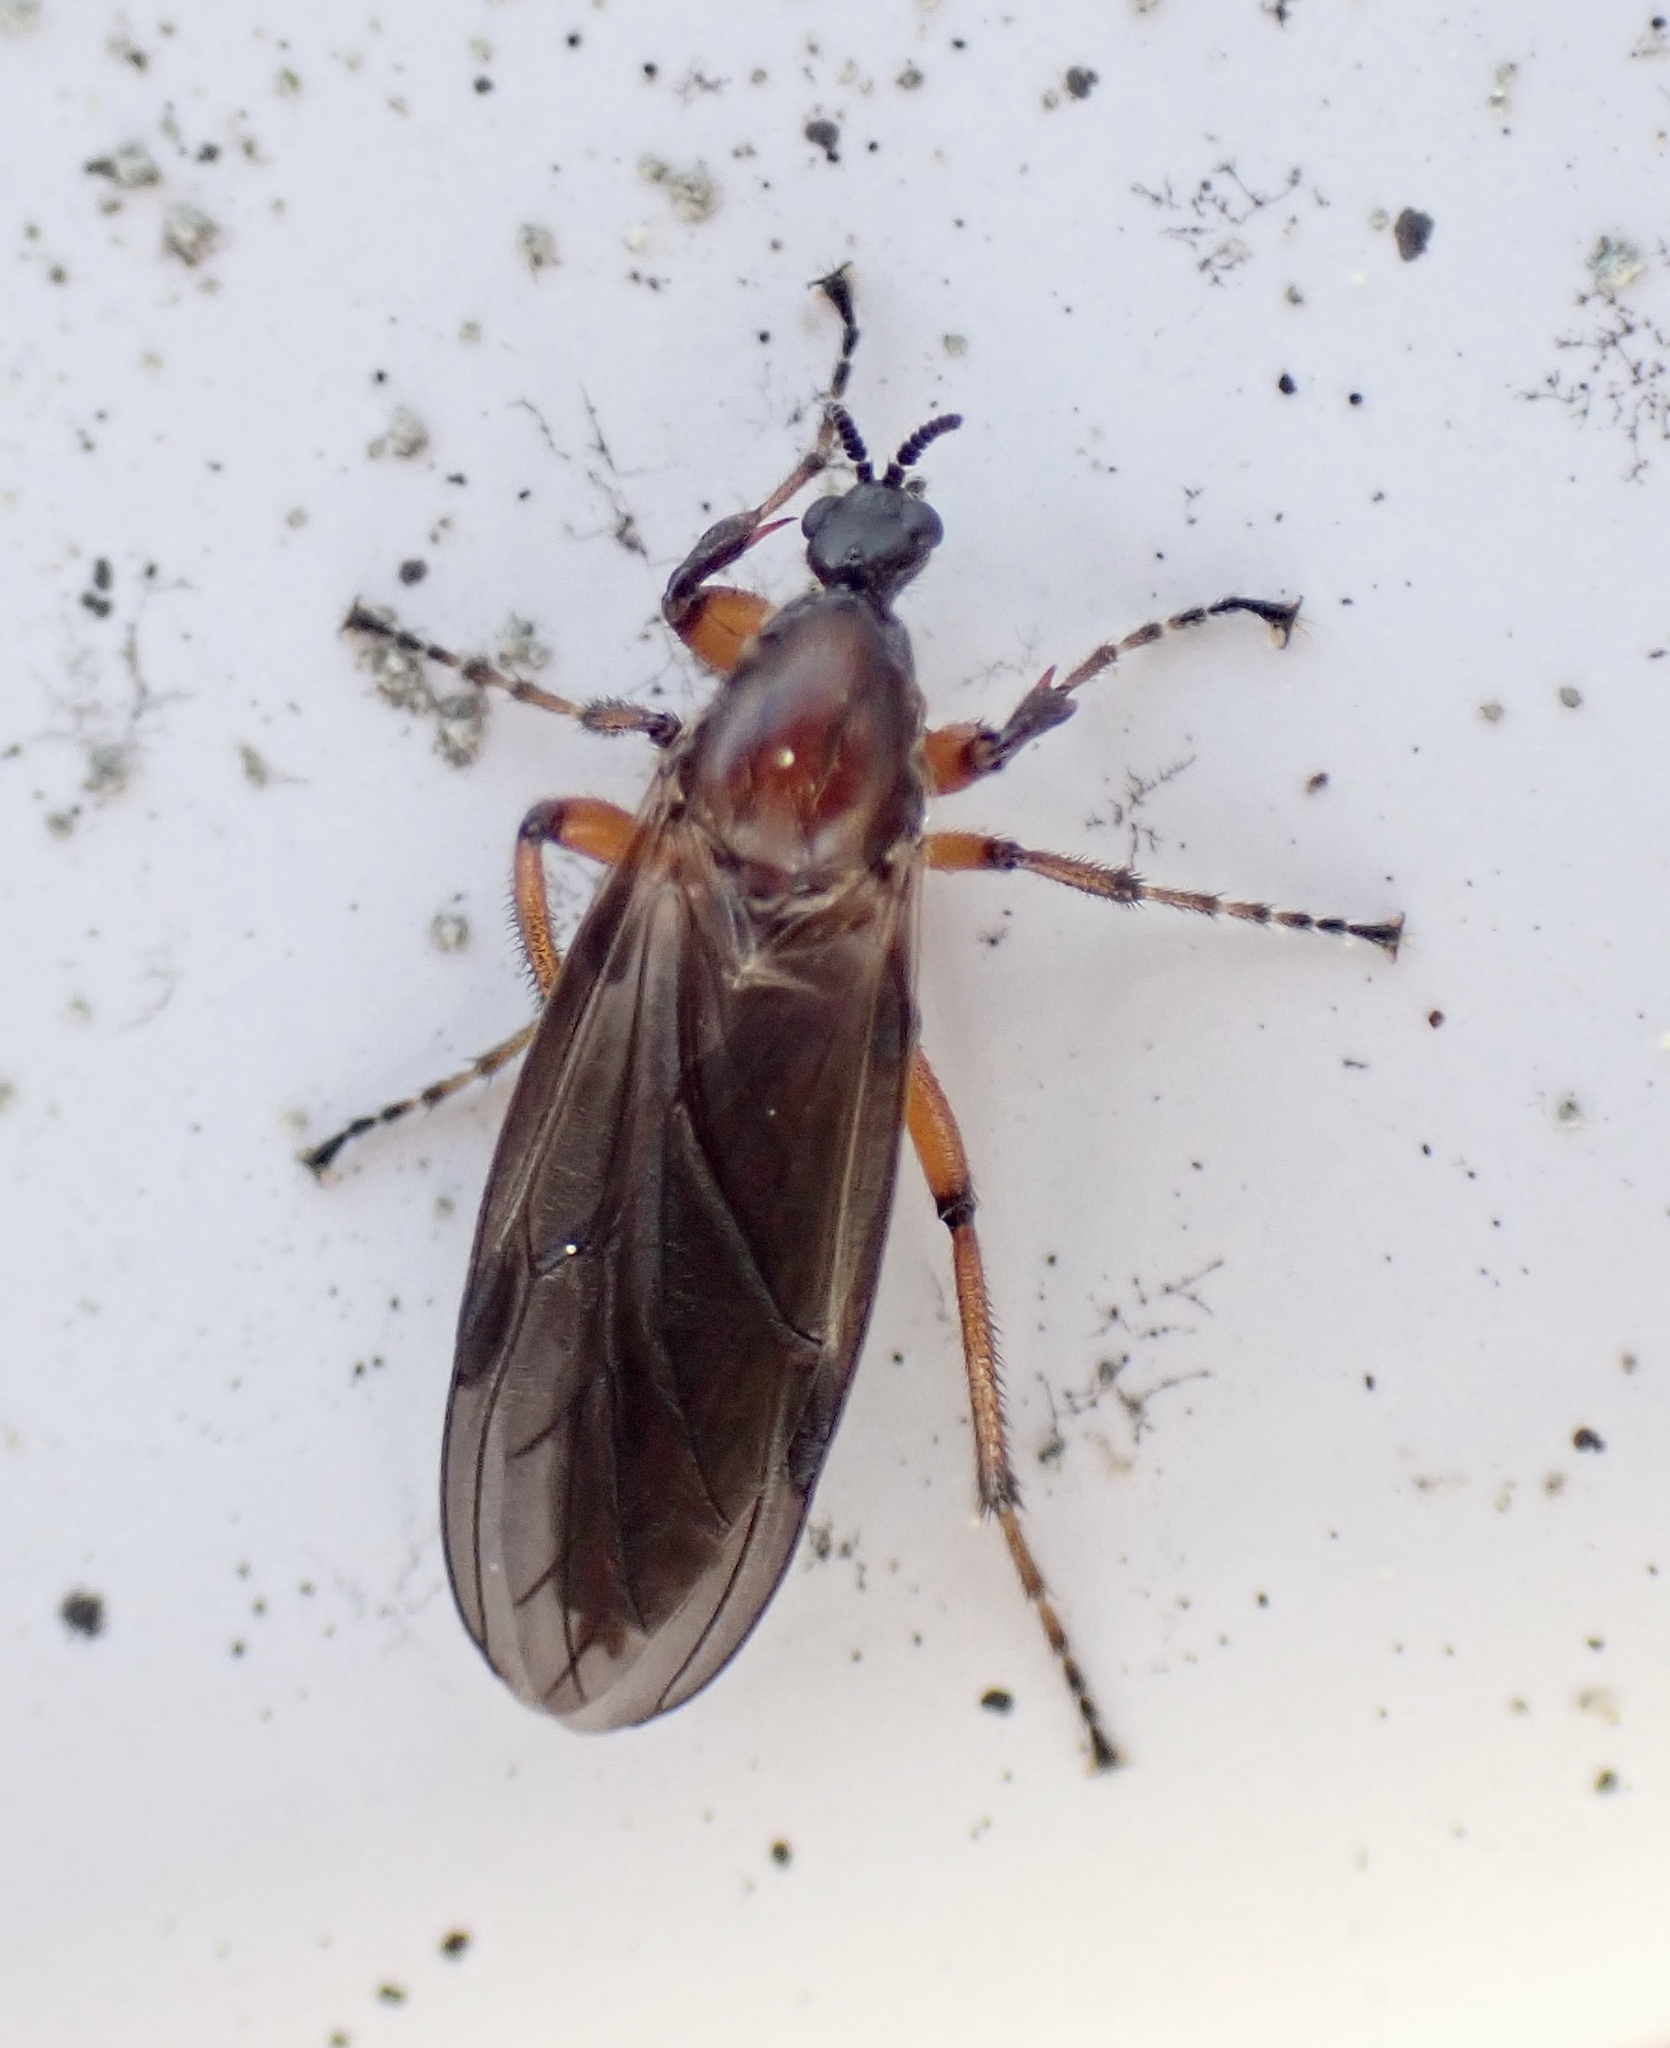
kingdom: Animalia
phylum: Arthropoda
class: Insecta
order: Diptera
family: Bibionidae
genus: Bibio
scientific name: Bibio articulatus
